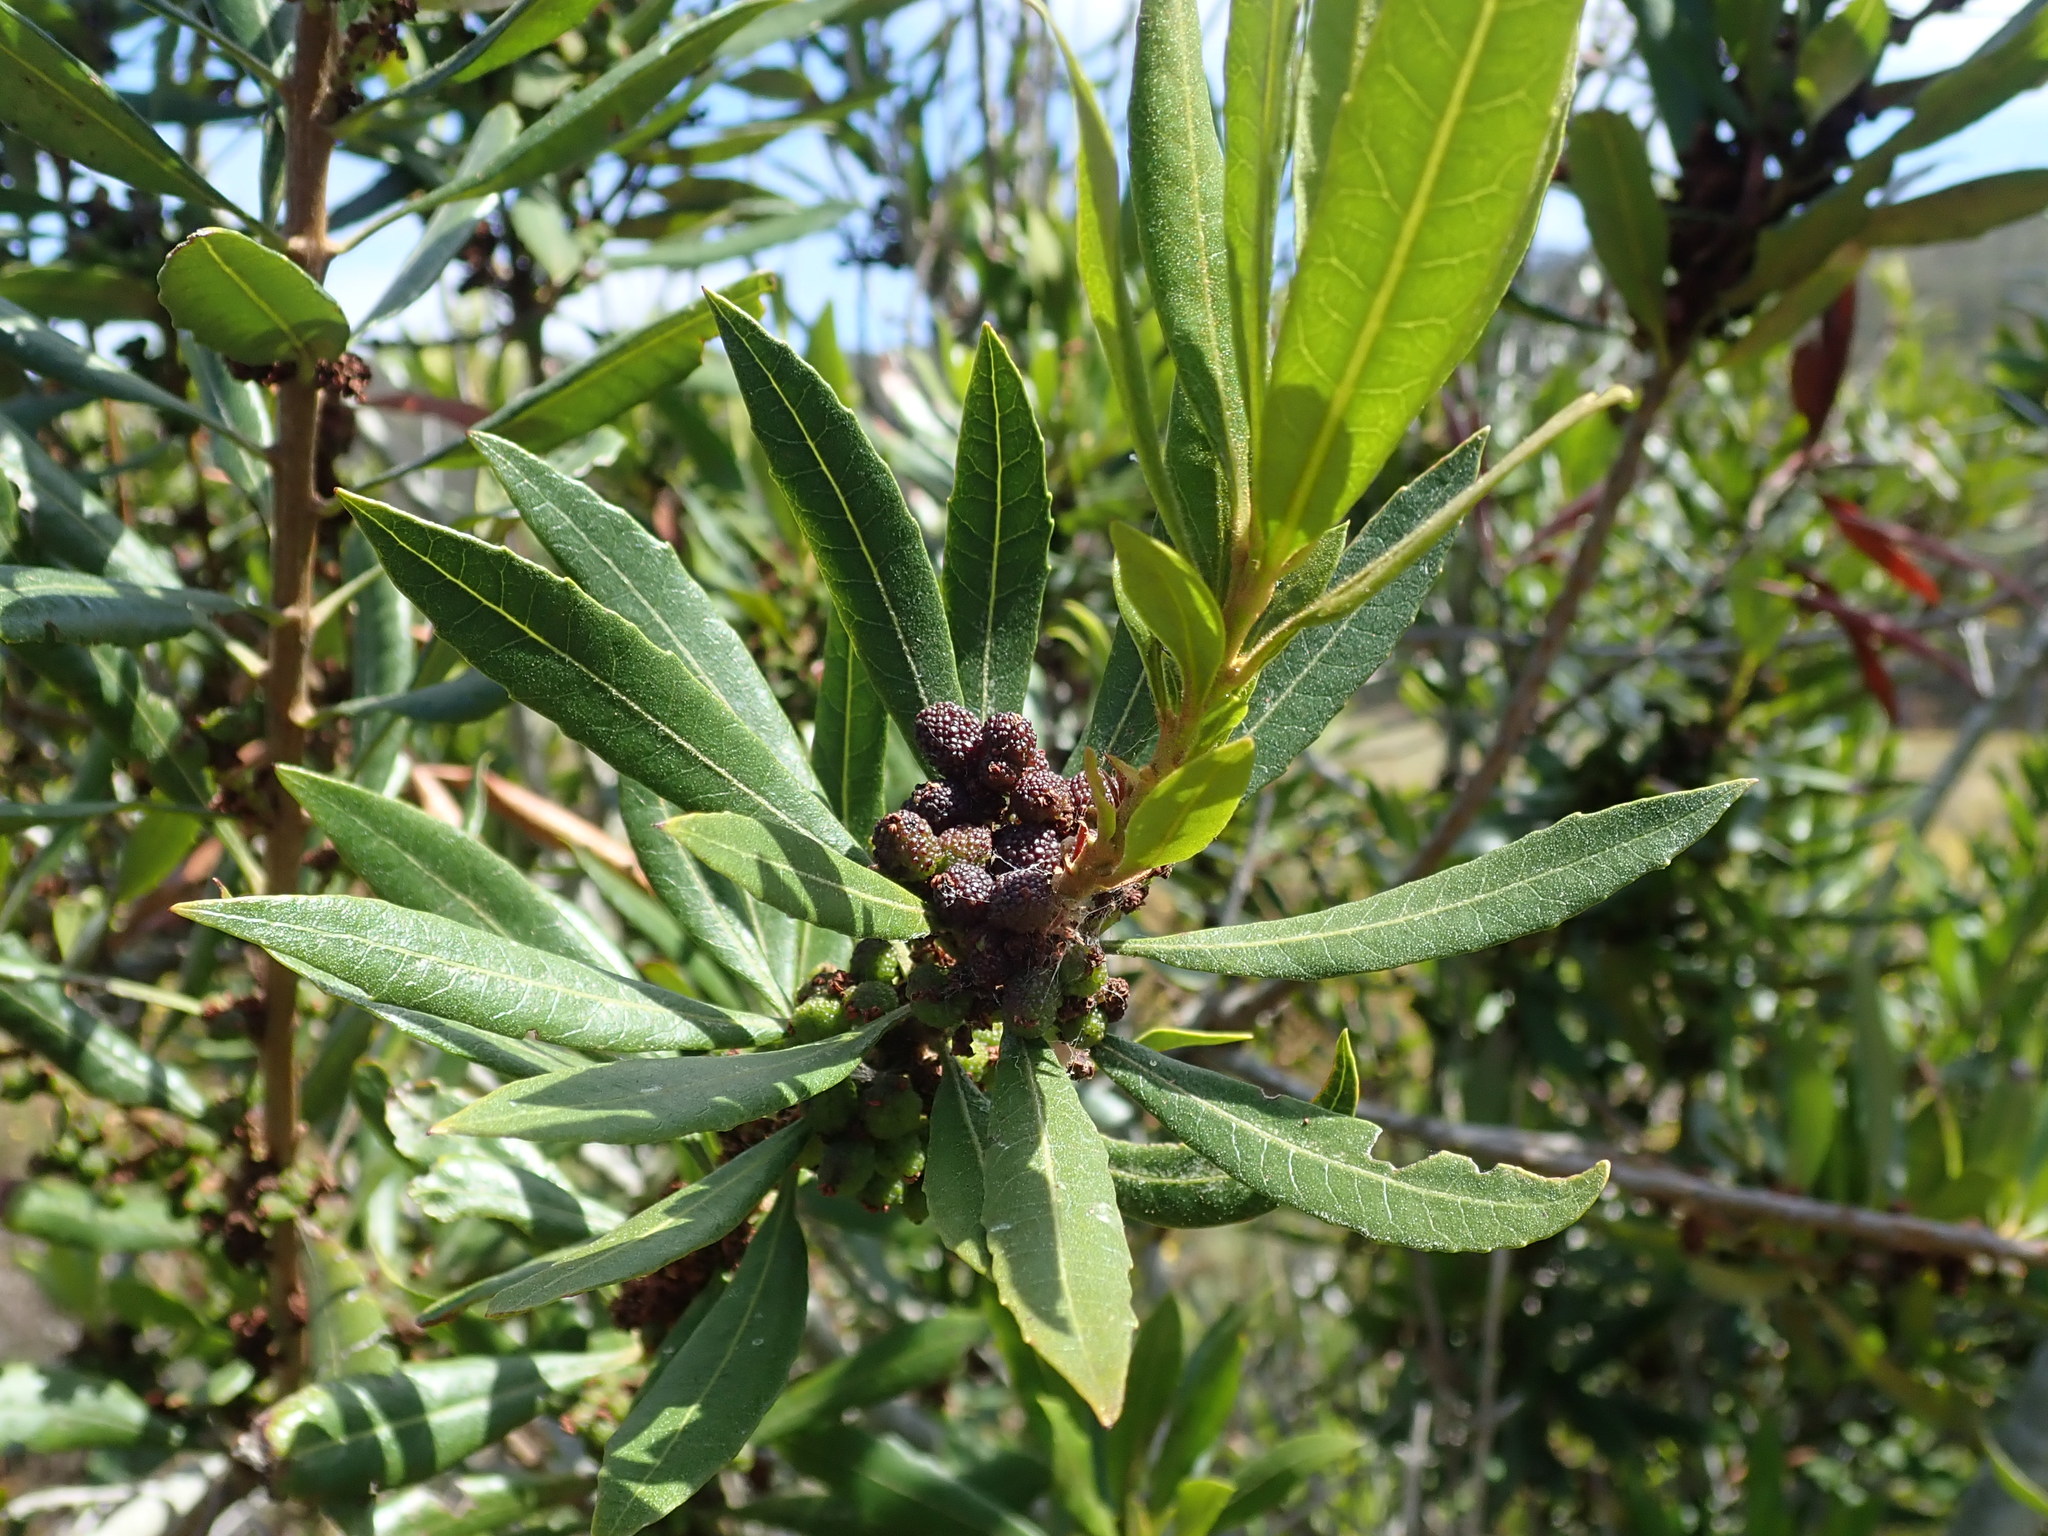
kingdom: Plantae
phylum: Tracheophyta
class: Magnoliopsida
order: Fagales
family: Myricaceae
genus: Morella
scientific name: Morella californica
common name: California wax-myrtle
